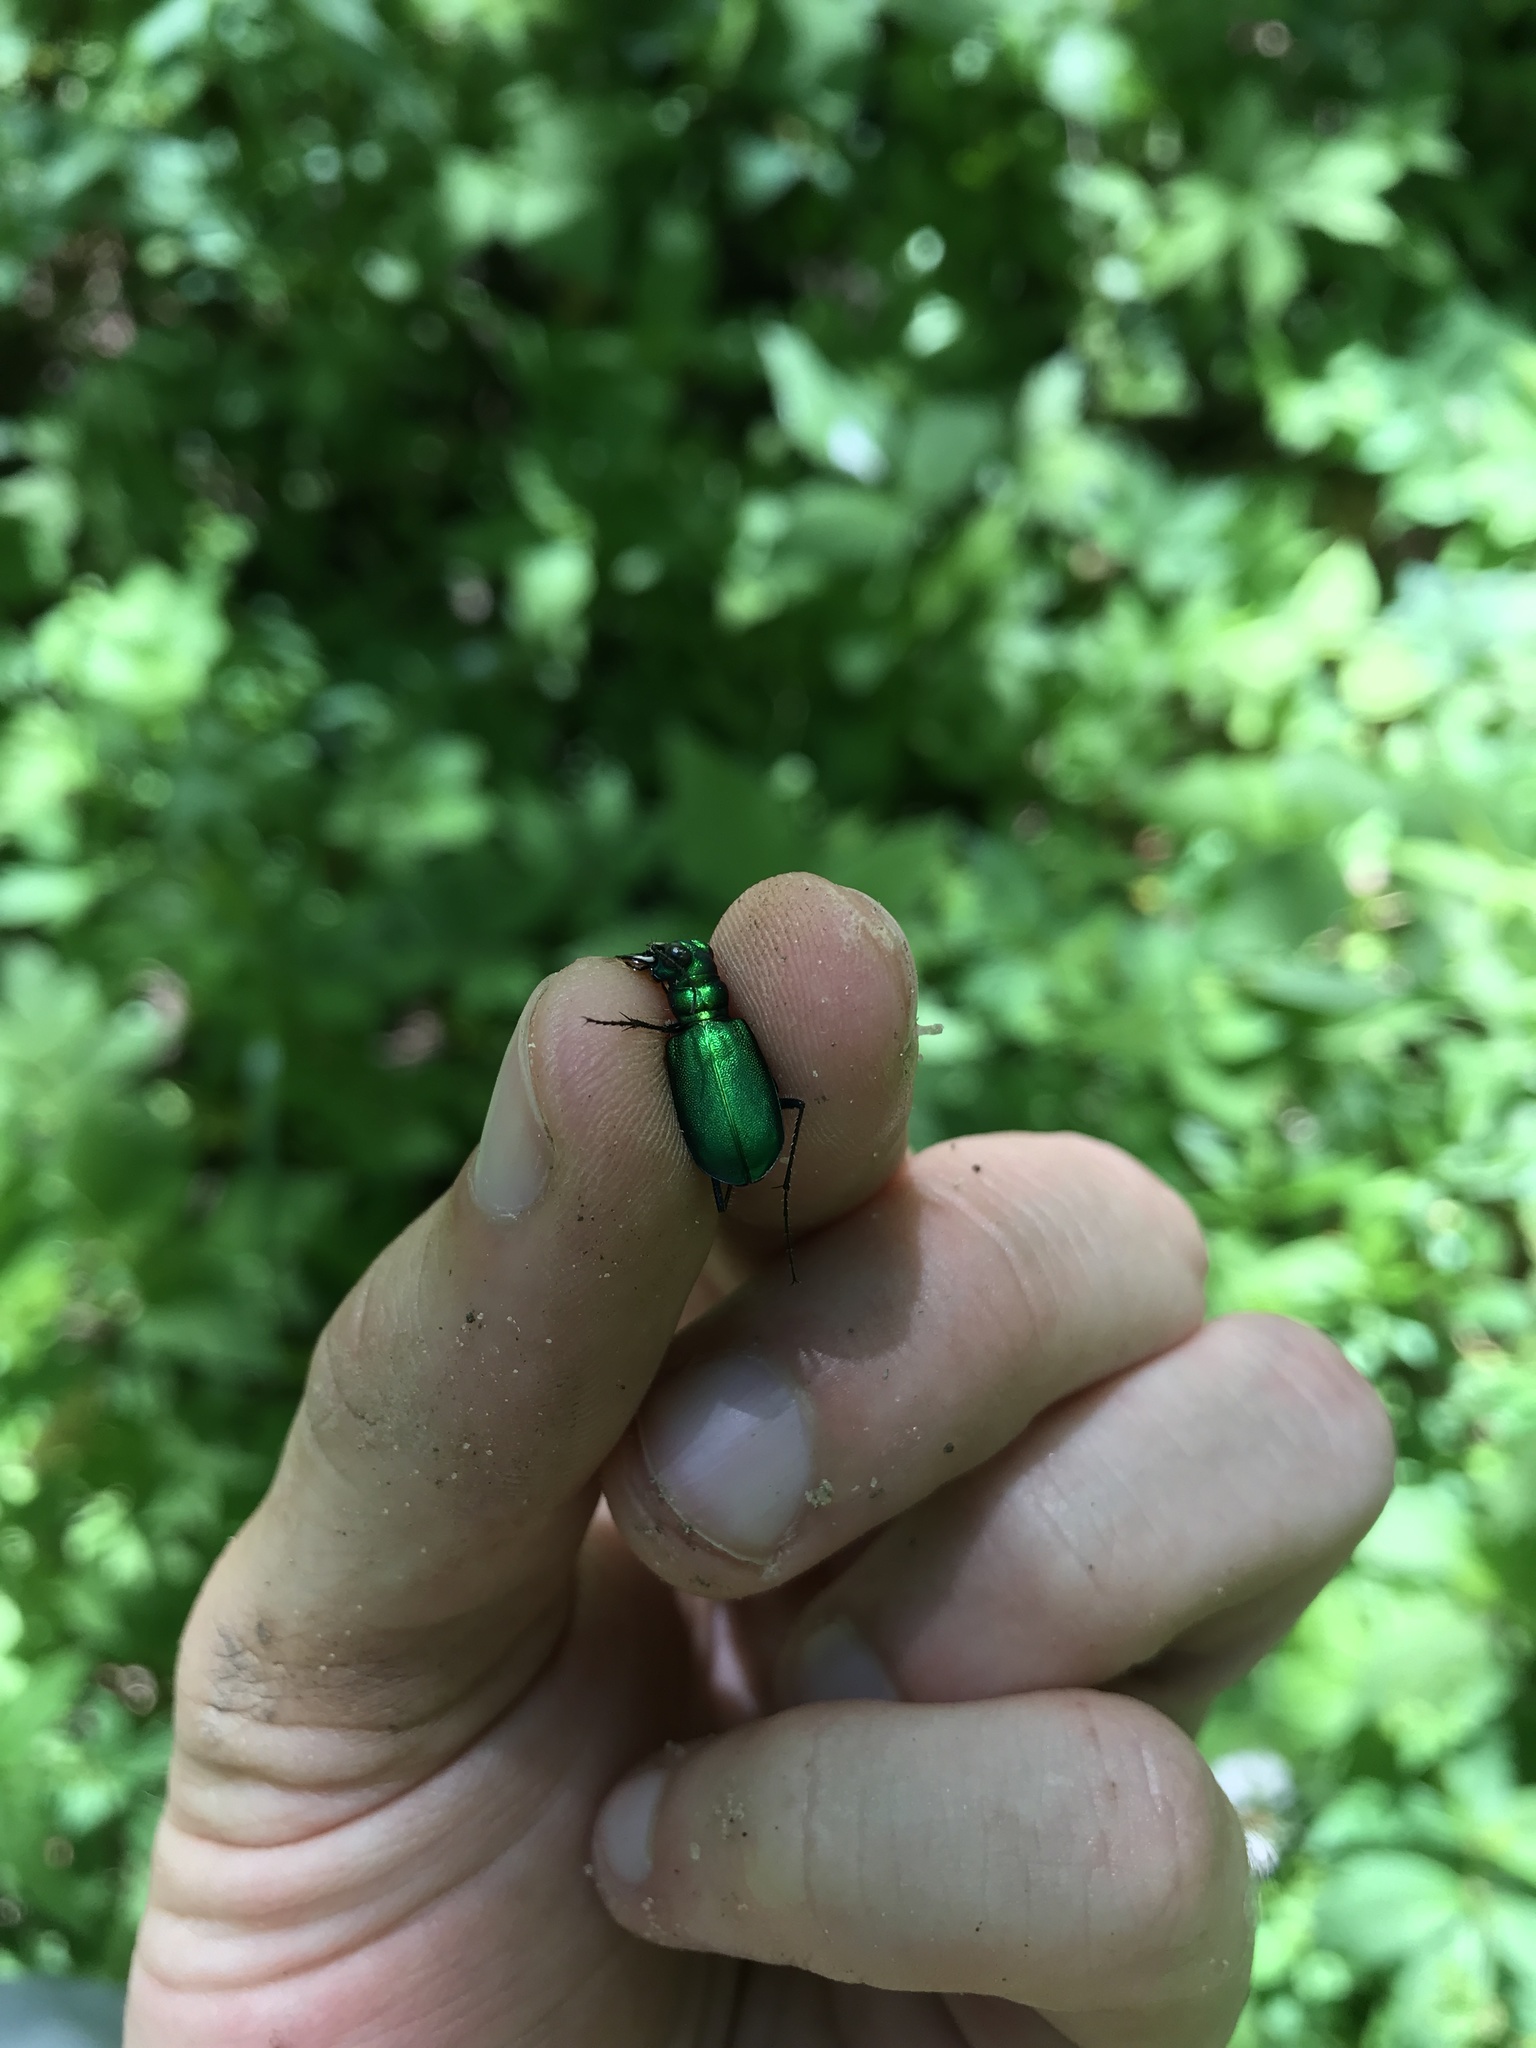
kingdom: Animalia
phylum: Arthropoda
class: Insecta
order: Coleoptera
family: Carabidae
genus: Cicindela
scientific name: Cicindela sexguttata
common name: Six-spotted tiger beetle
